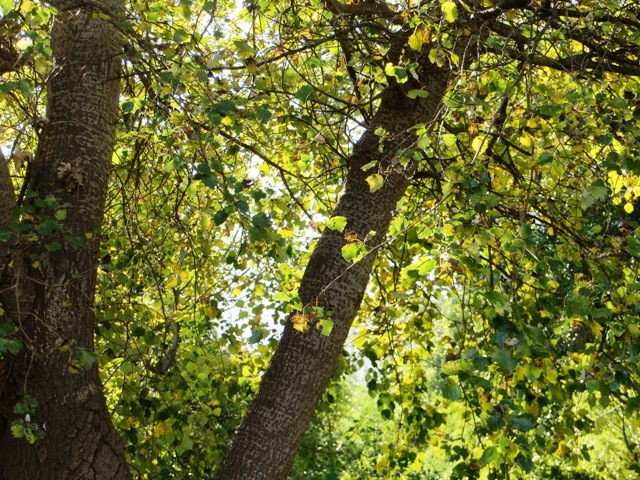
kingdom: Plantae
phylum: Tracheophyta
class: Magnoliopsida
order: Malpighiales
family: Salicaceae
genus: Populus
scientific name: Populus alba
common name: White poplar
